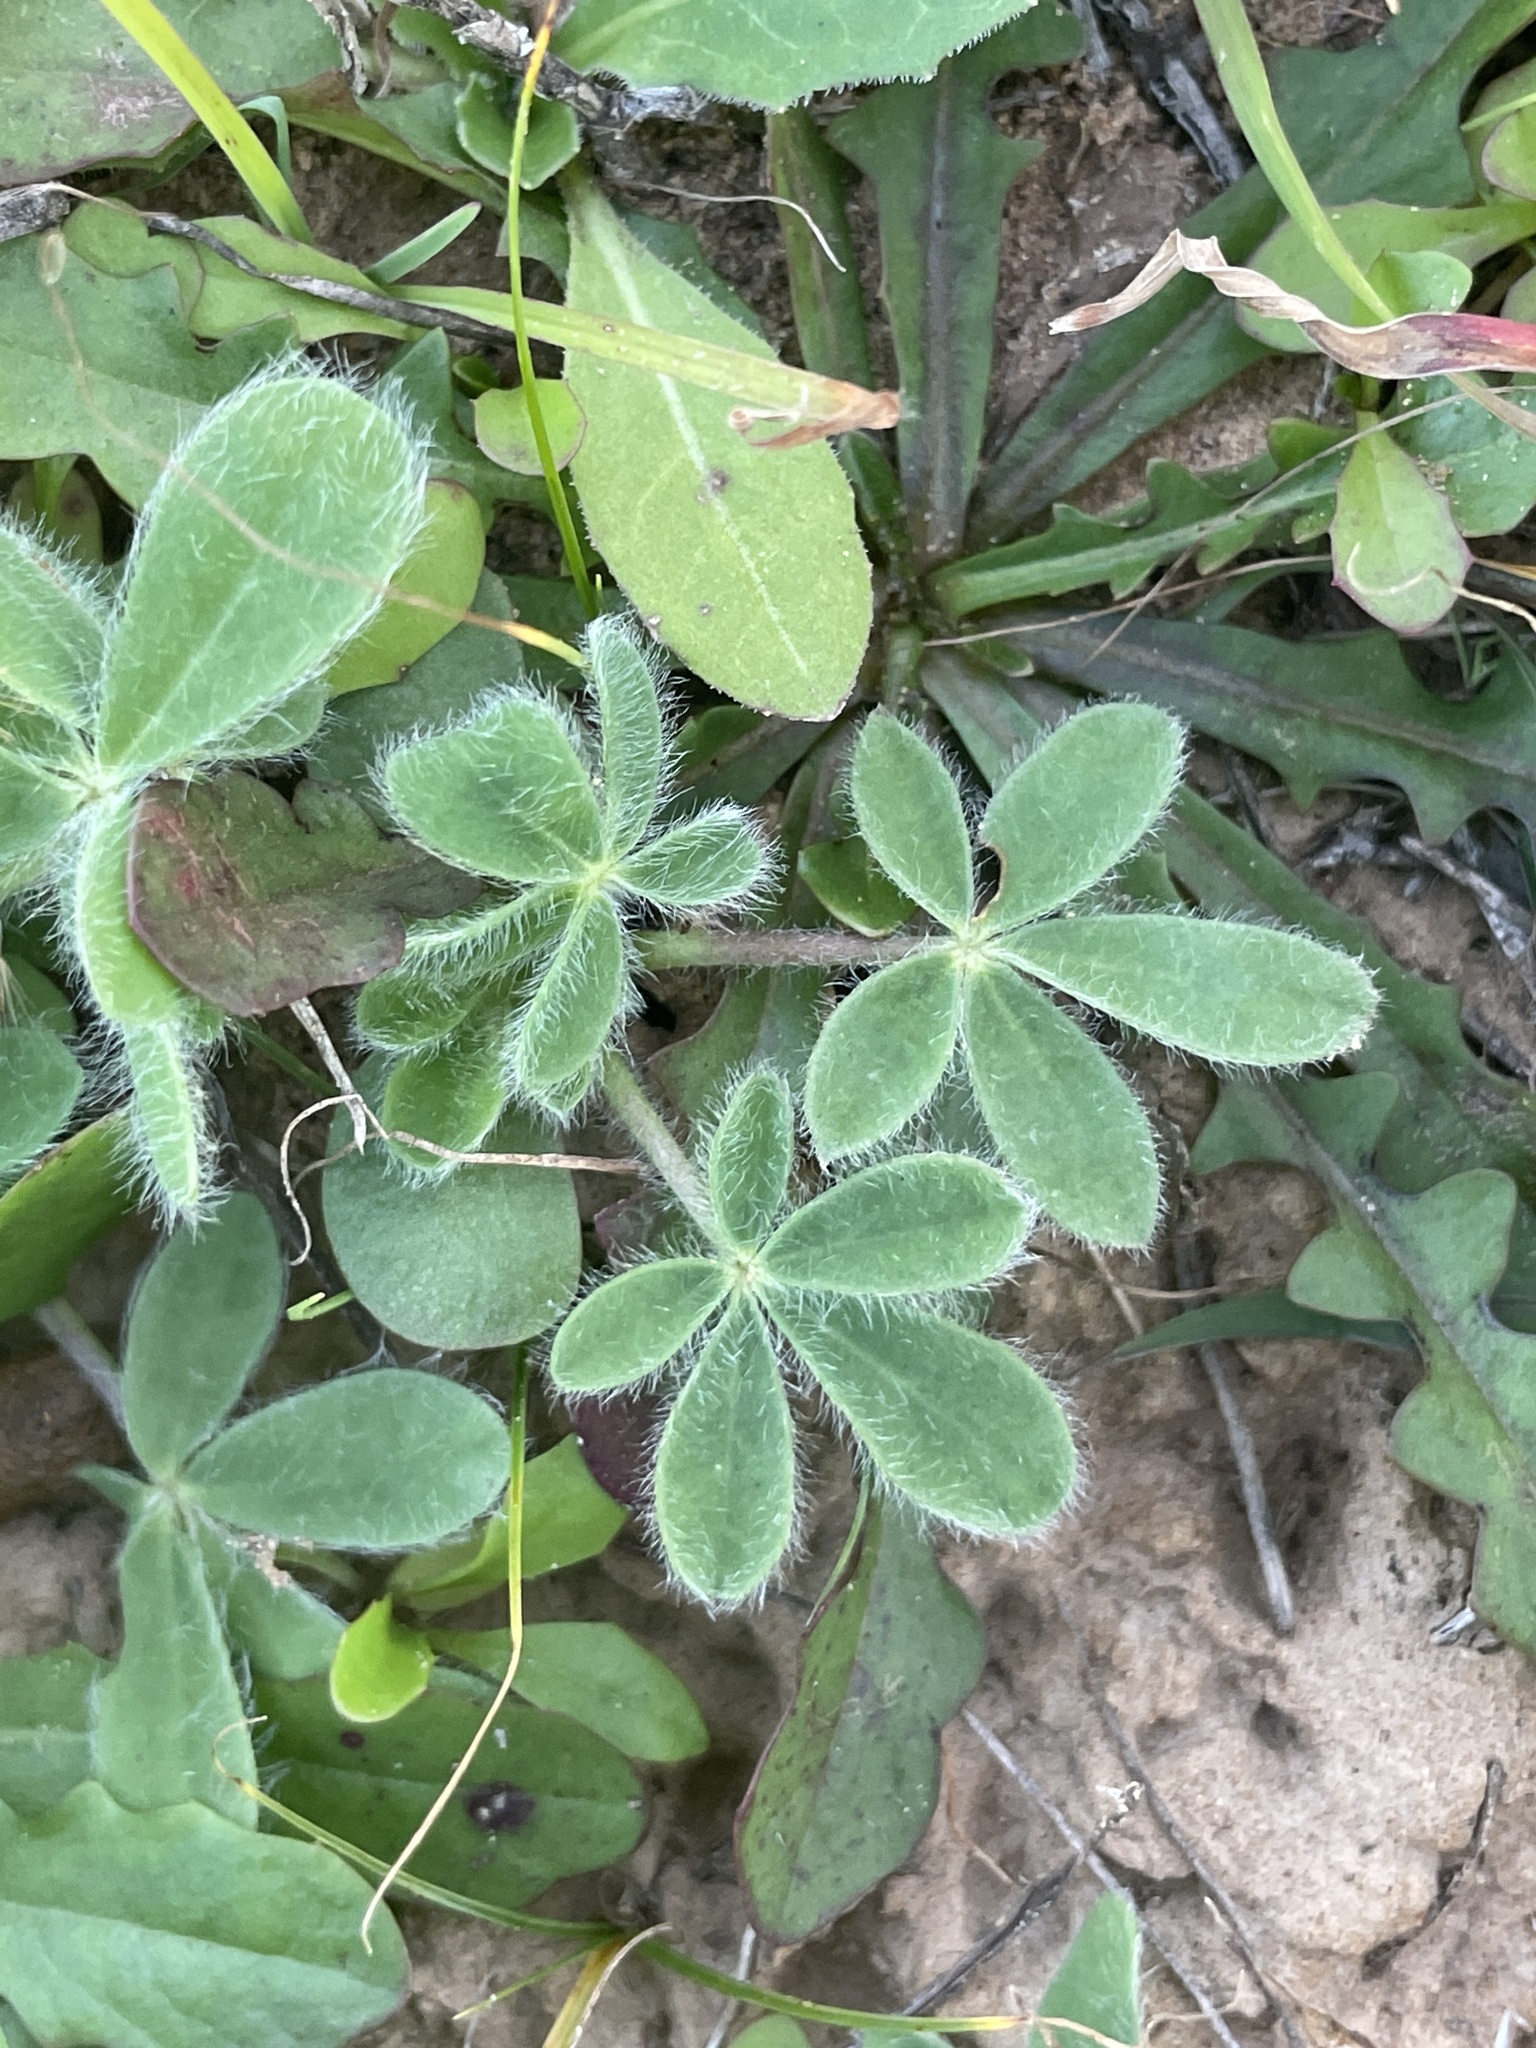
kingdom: Plantae
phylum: Tracheophyta
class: Magnoliopsida
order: Fabales
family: Fabaceae
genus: Lupinus
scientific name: Lupinus subcarnosus
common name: Texas bluebonnet
